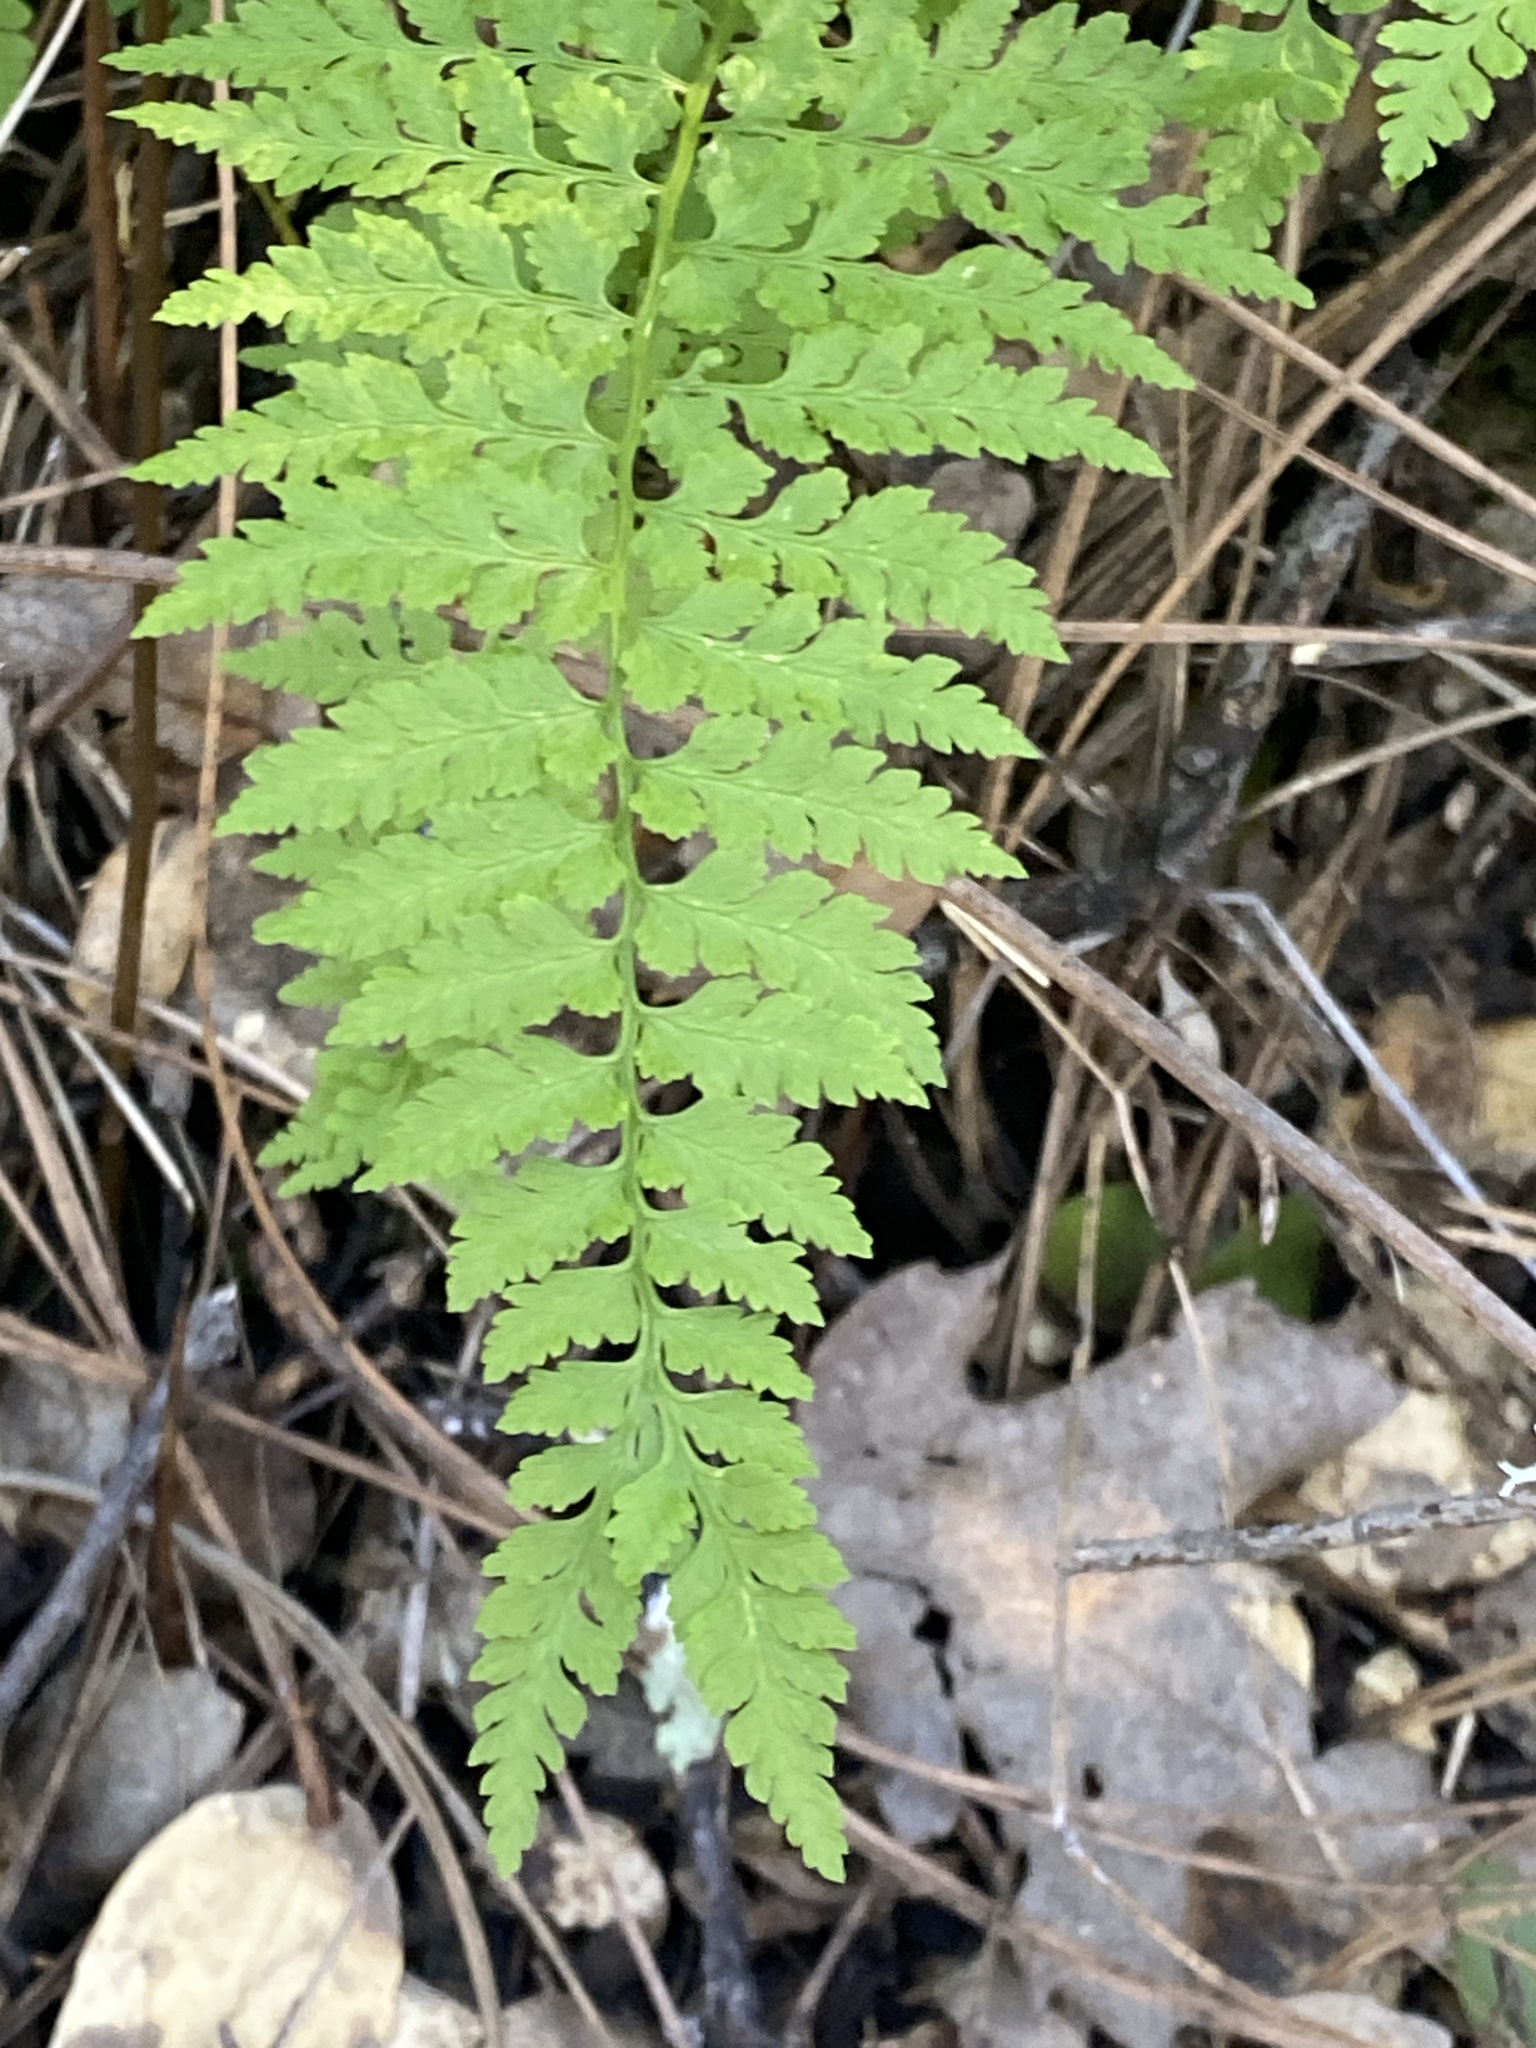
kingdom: Plantae
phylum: Tracheophyta
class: Polypodiopsida
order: Polypodiales
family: Cystopteridaceae
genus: Cystopteris
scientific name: Cystopteris fragilis
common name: Brittle bladder fern
